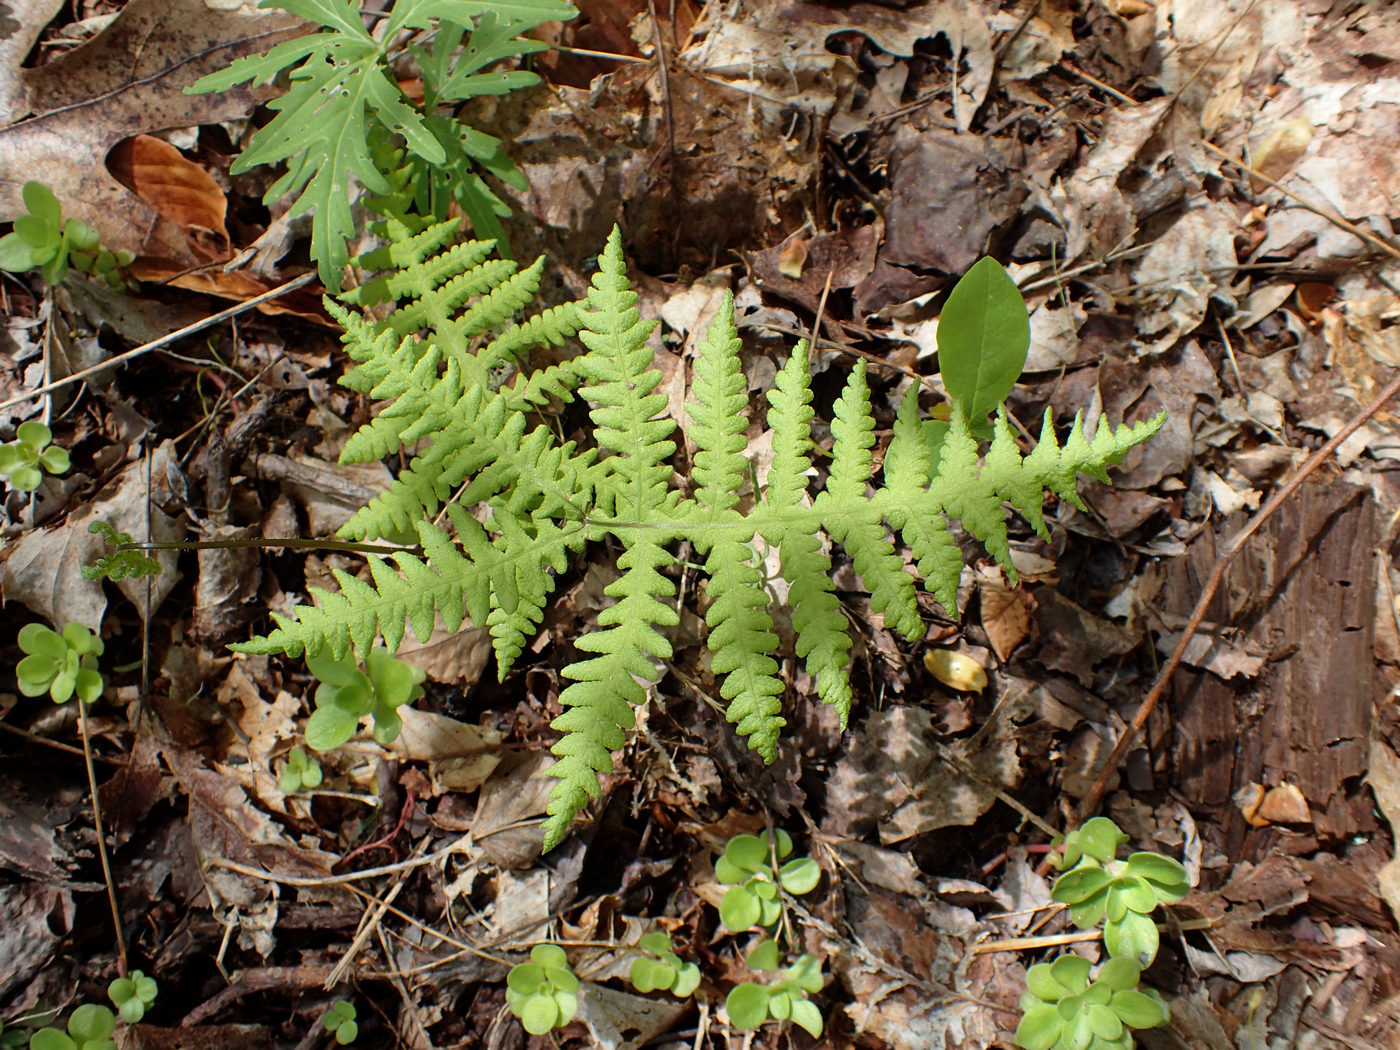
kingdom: Plantae
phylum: Tracheophyta
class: Polypodiopsida
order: Polypodiales
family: Thelypteridaceae
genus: Phegopteris
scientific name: Phegopteris hexagonoptera
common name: Broad beech fern
